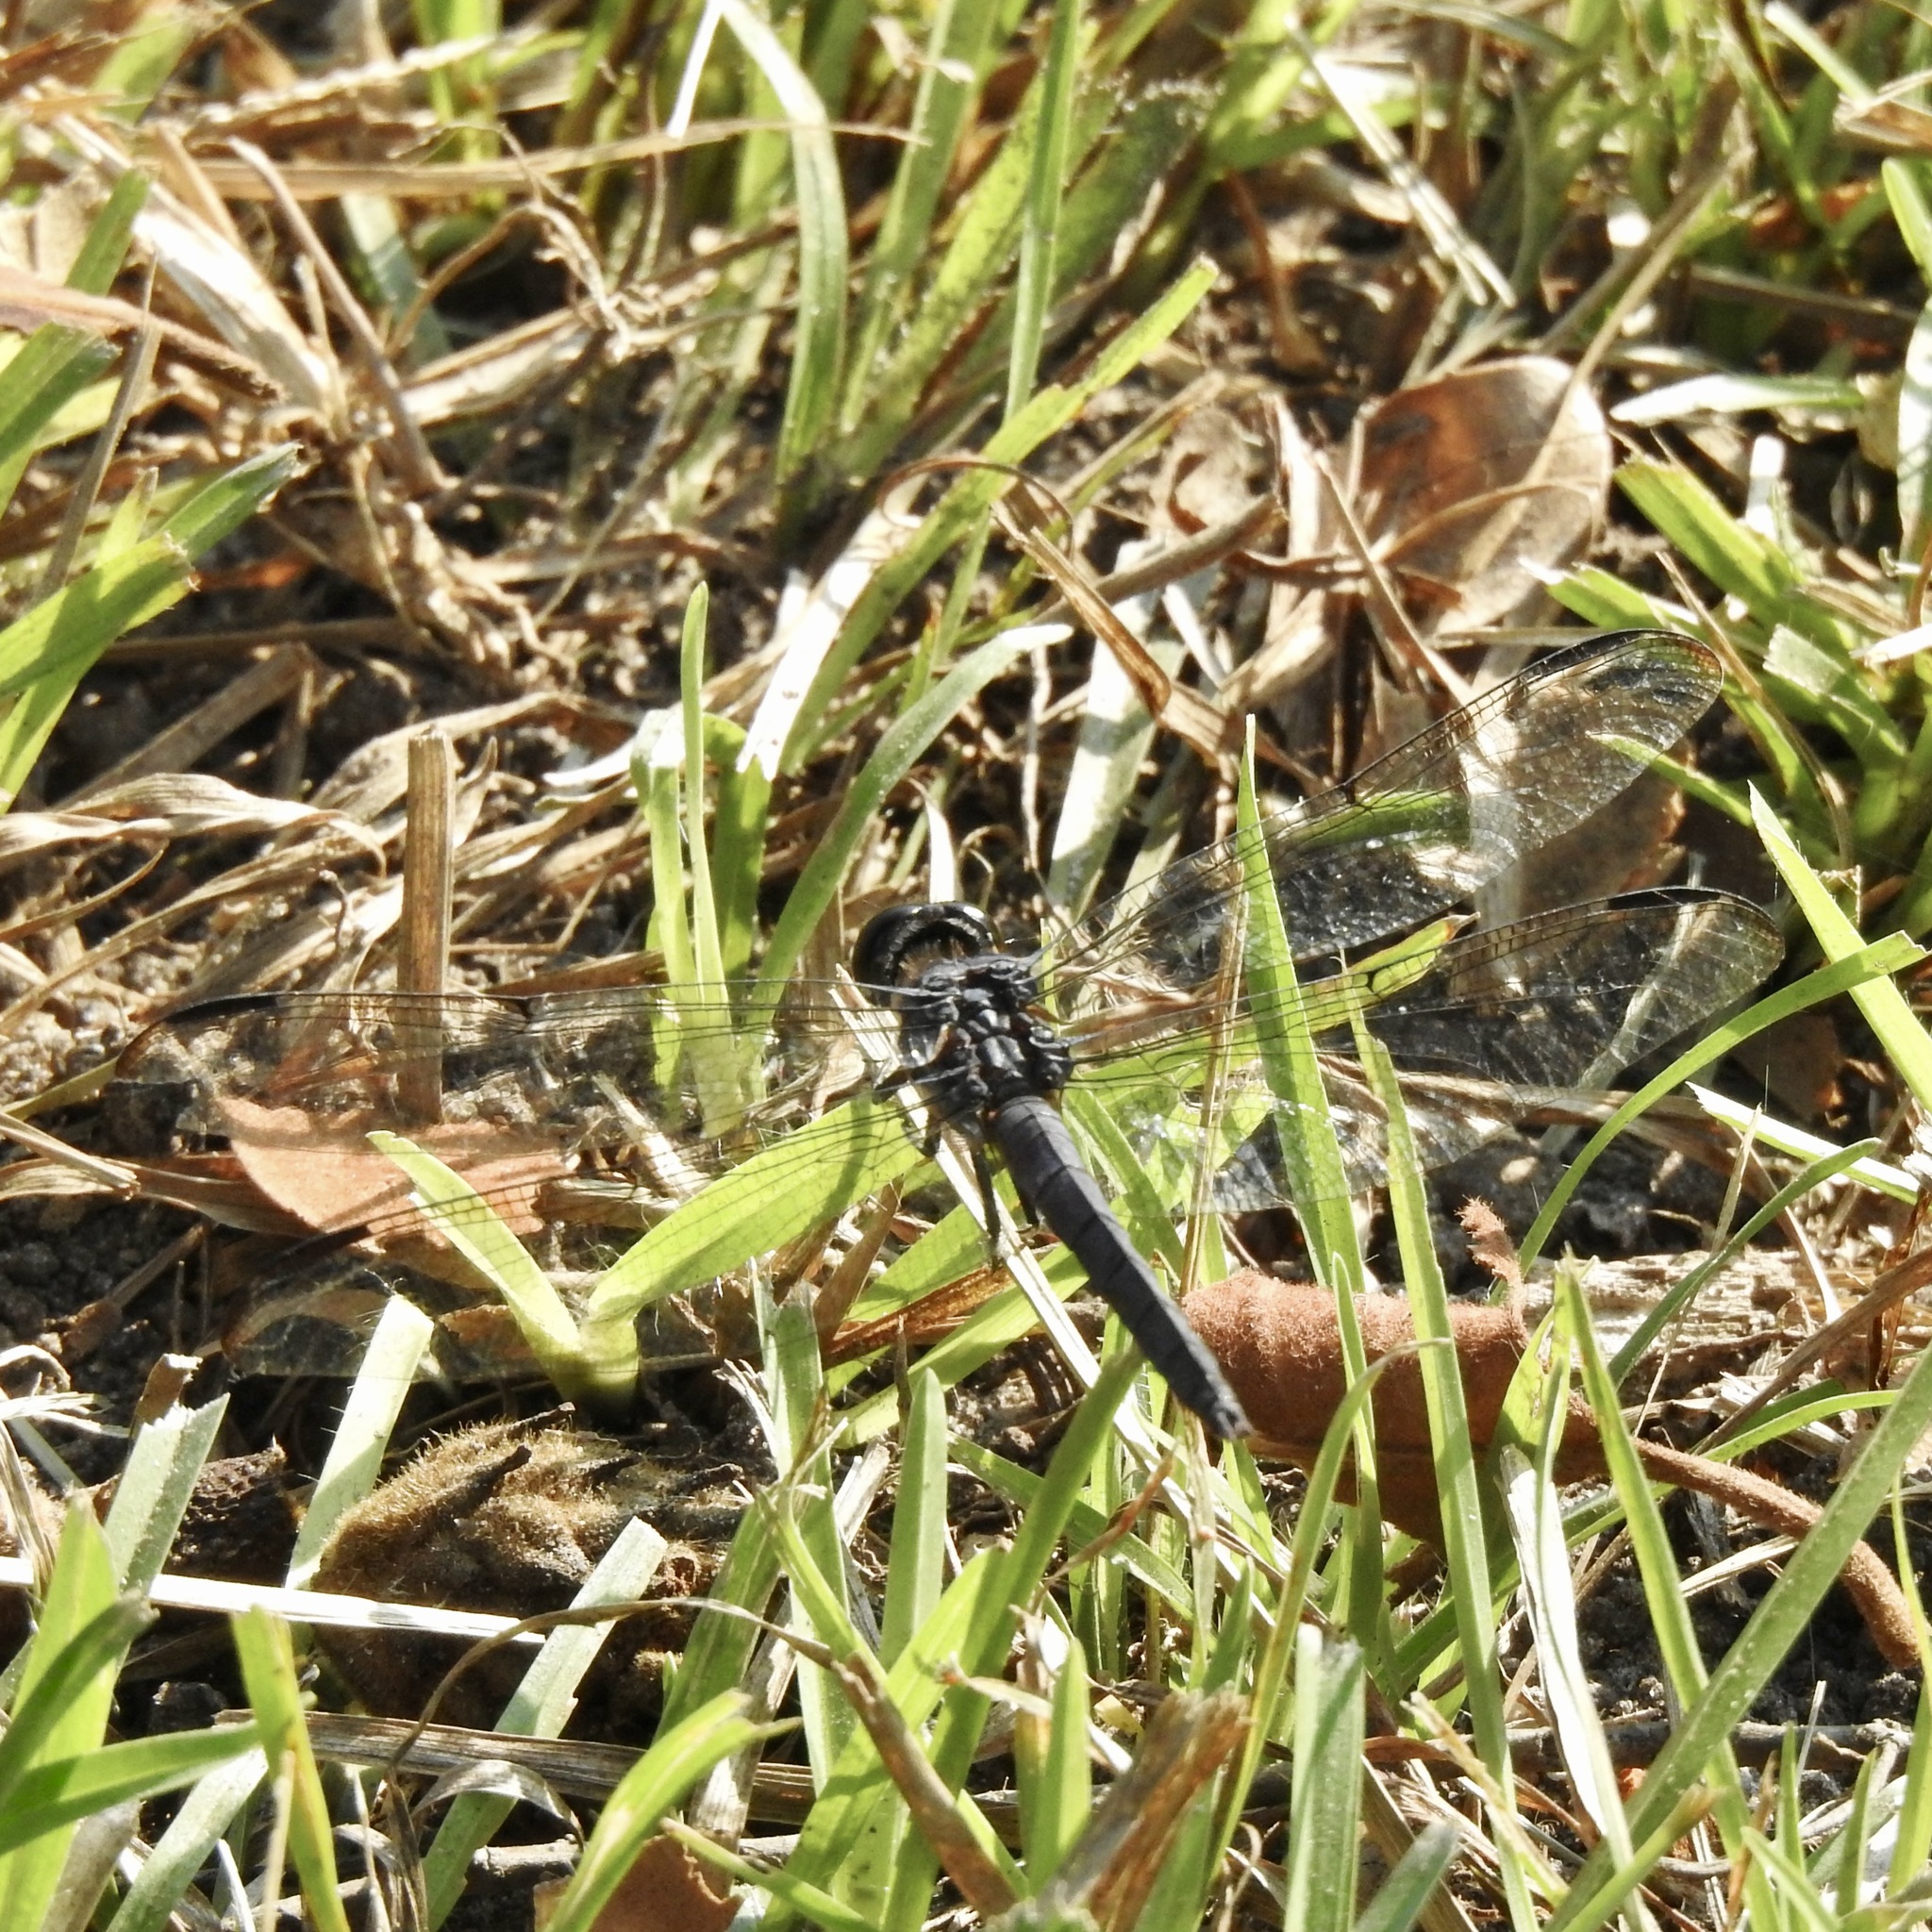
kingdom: Animalia
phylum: Arthropoda
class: Insecta
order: Odonata
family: Libellulidae
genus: Libellula
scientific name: Libellula incesta
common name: Slaty skimmer
